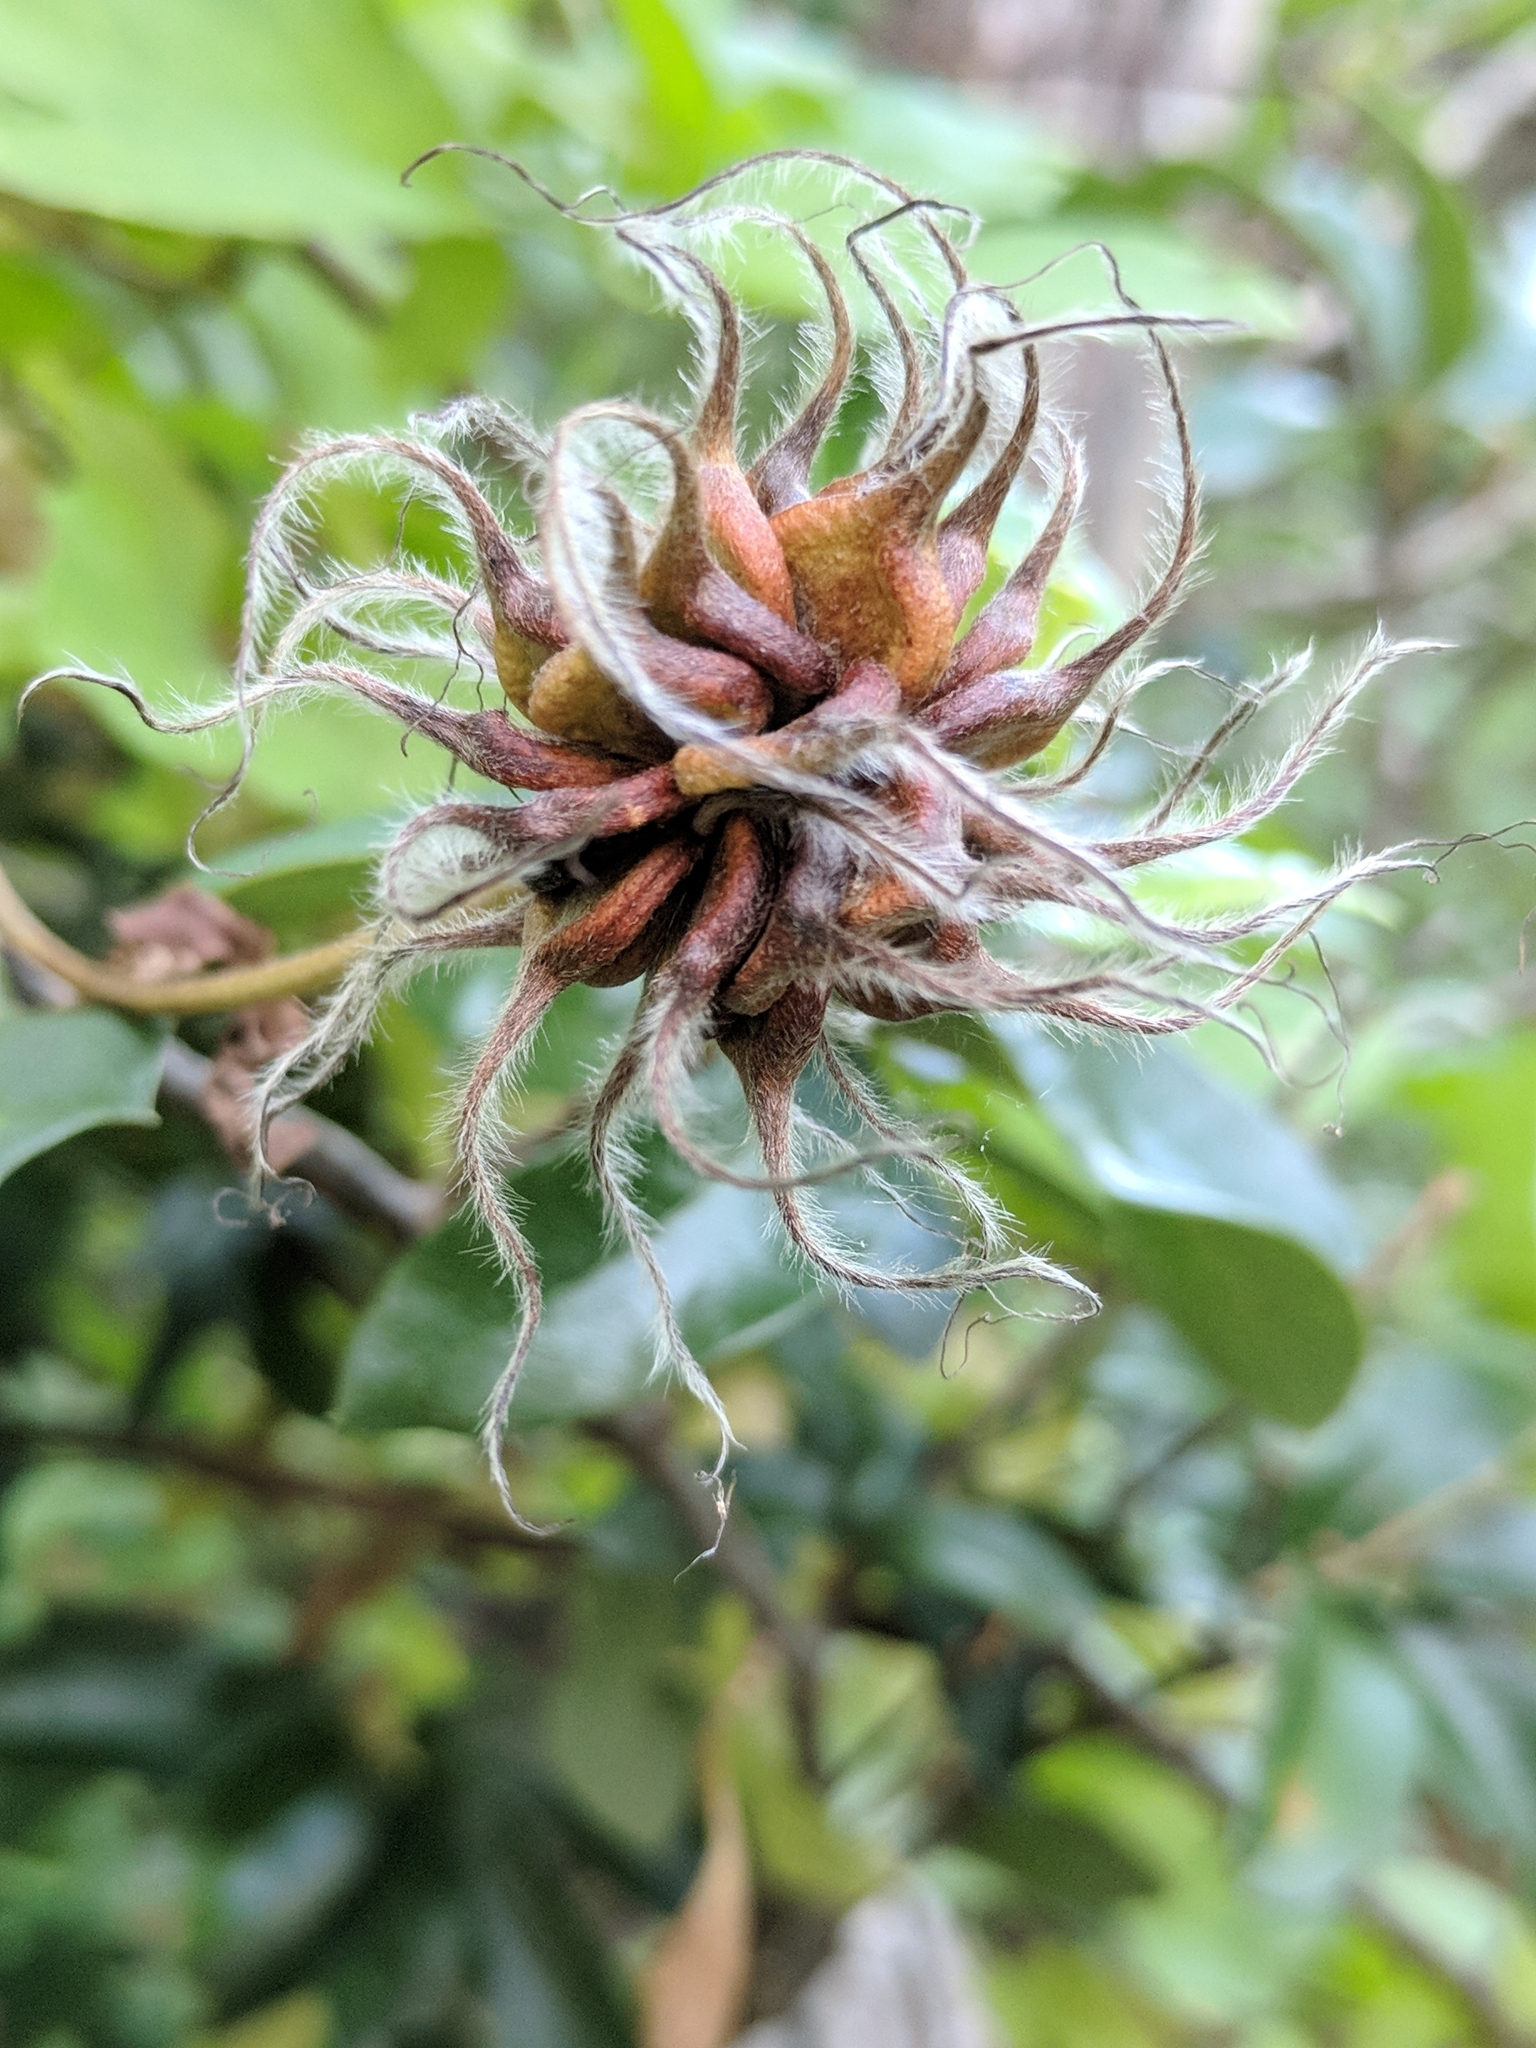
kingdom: Plantae
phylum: Tracheophyta
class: Magnoliopsida
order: Ranunculales
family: Ranunculaceae
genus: Clematis
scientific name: Clematis pitcheri
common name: Bellflower clematis
